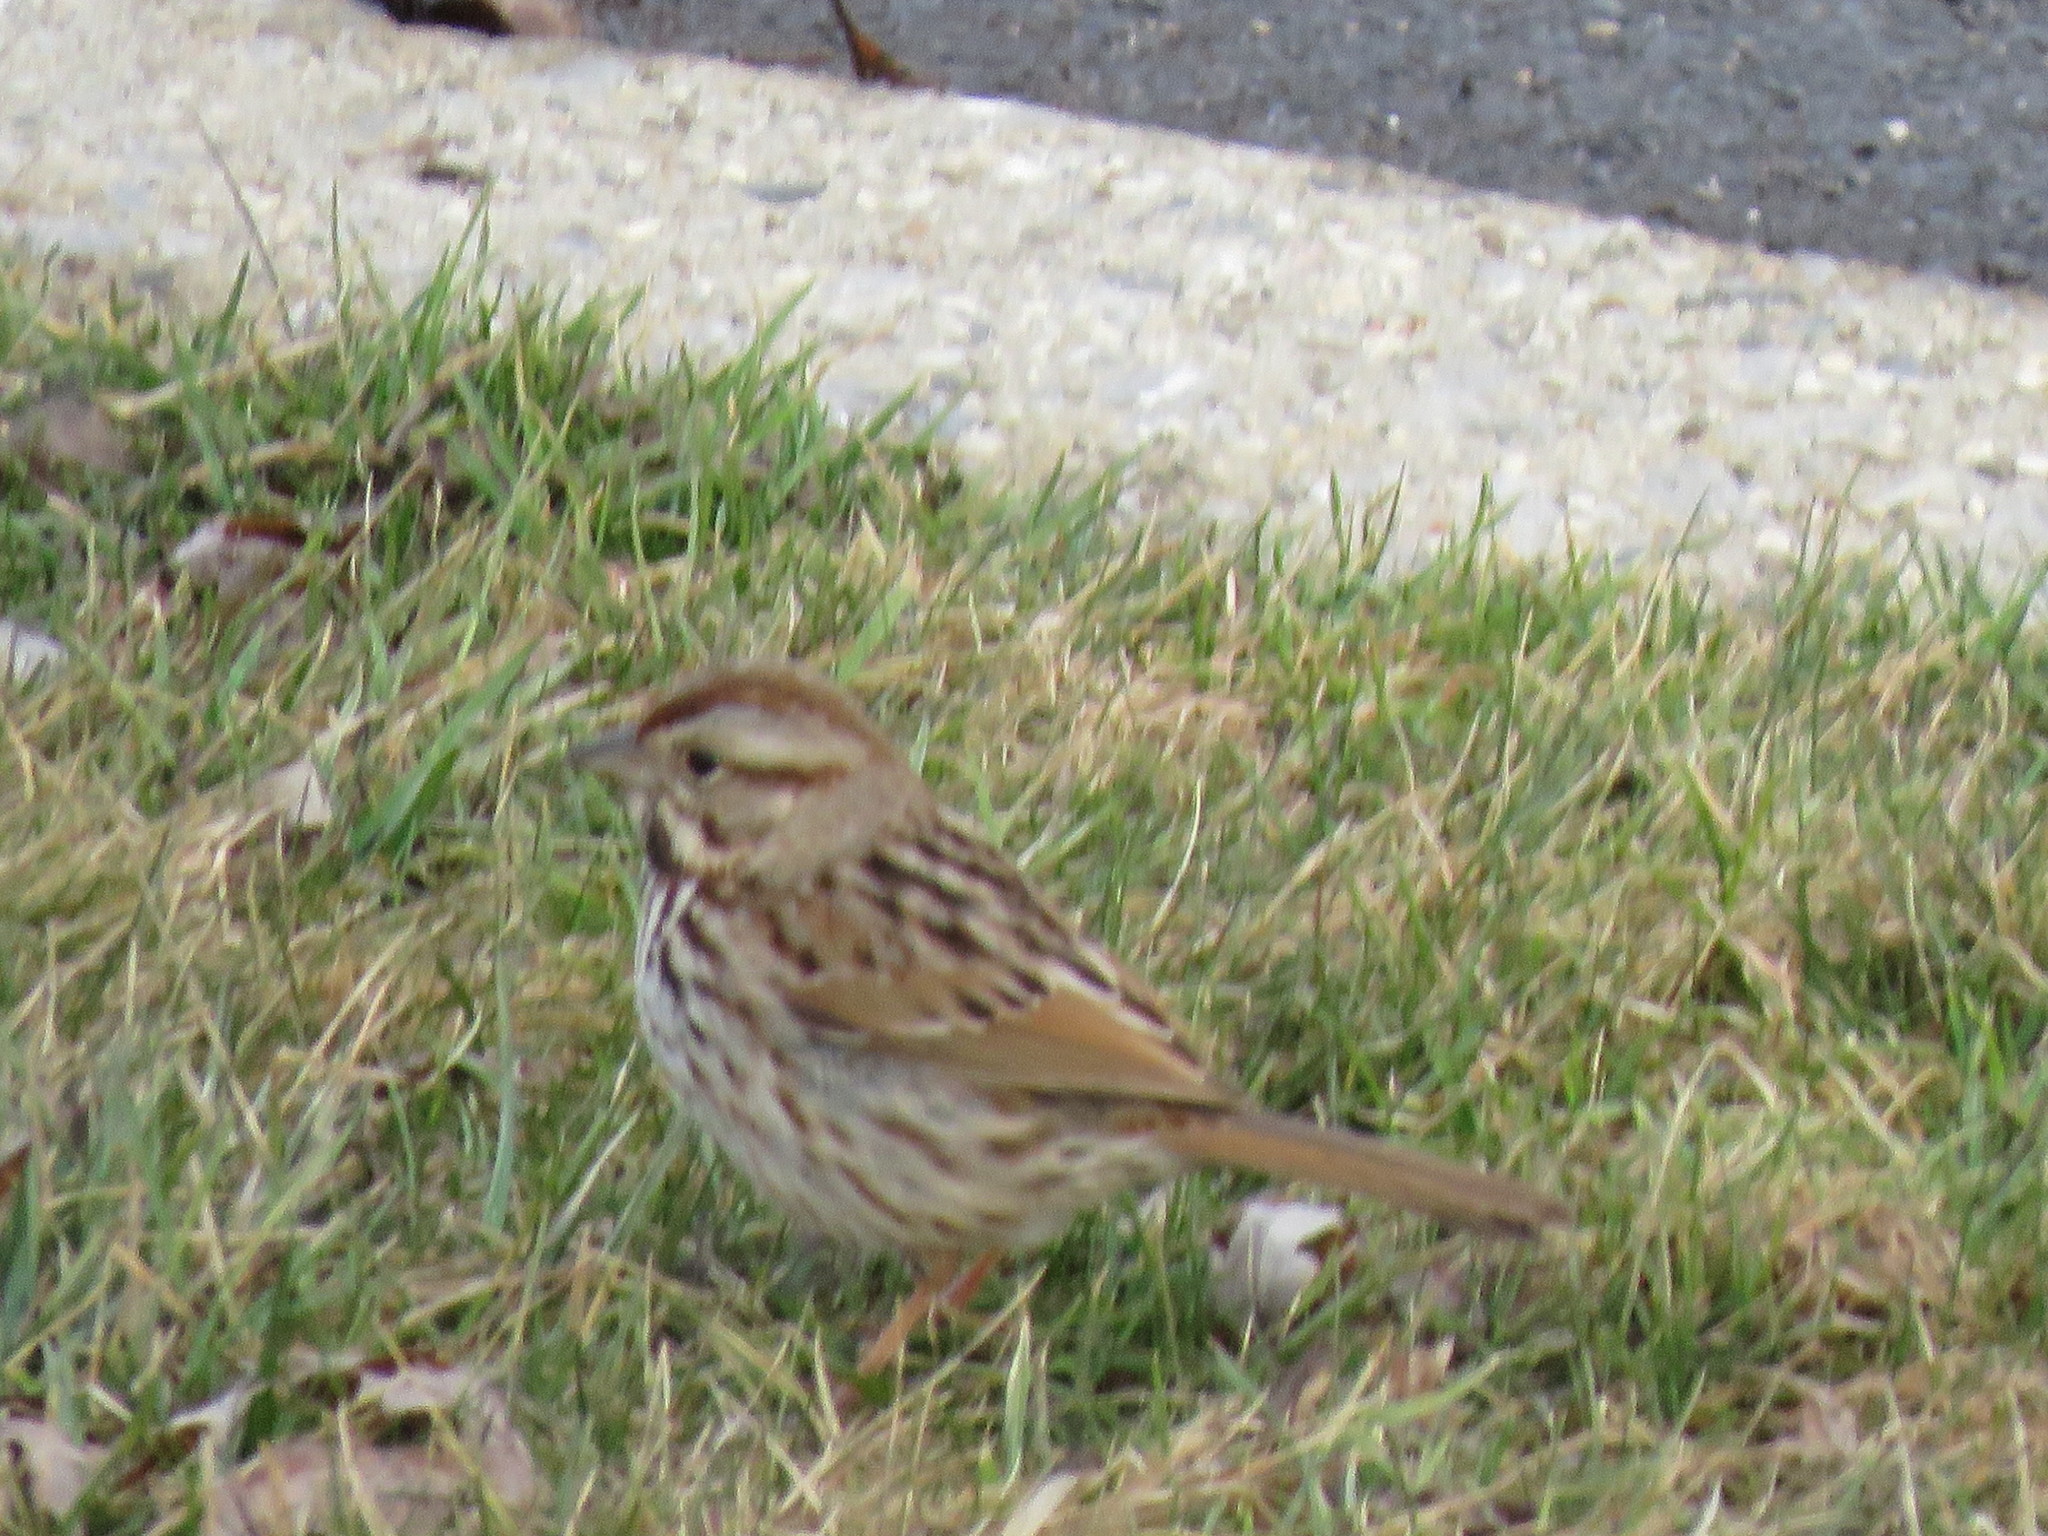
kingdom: Animalia
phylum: Chordata
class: Aves
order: Passeriformes
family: Passerellidae
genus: Melospiza
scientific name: Melospiza melodia
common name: Song sparrow
